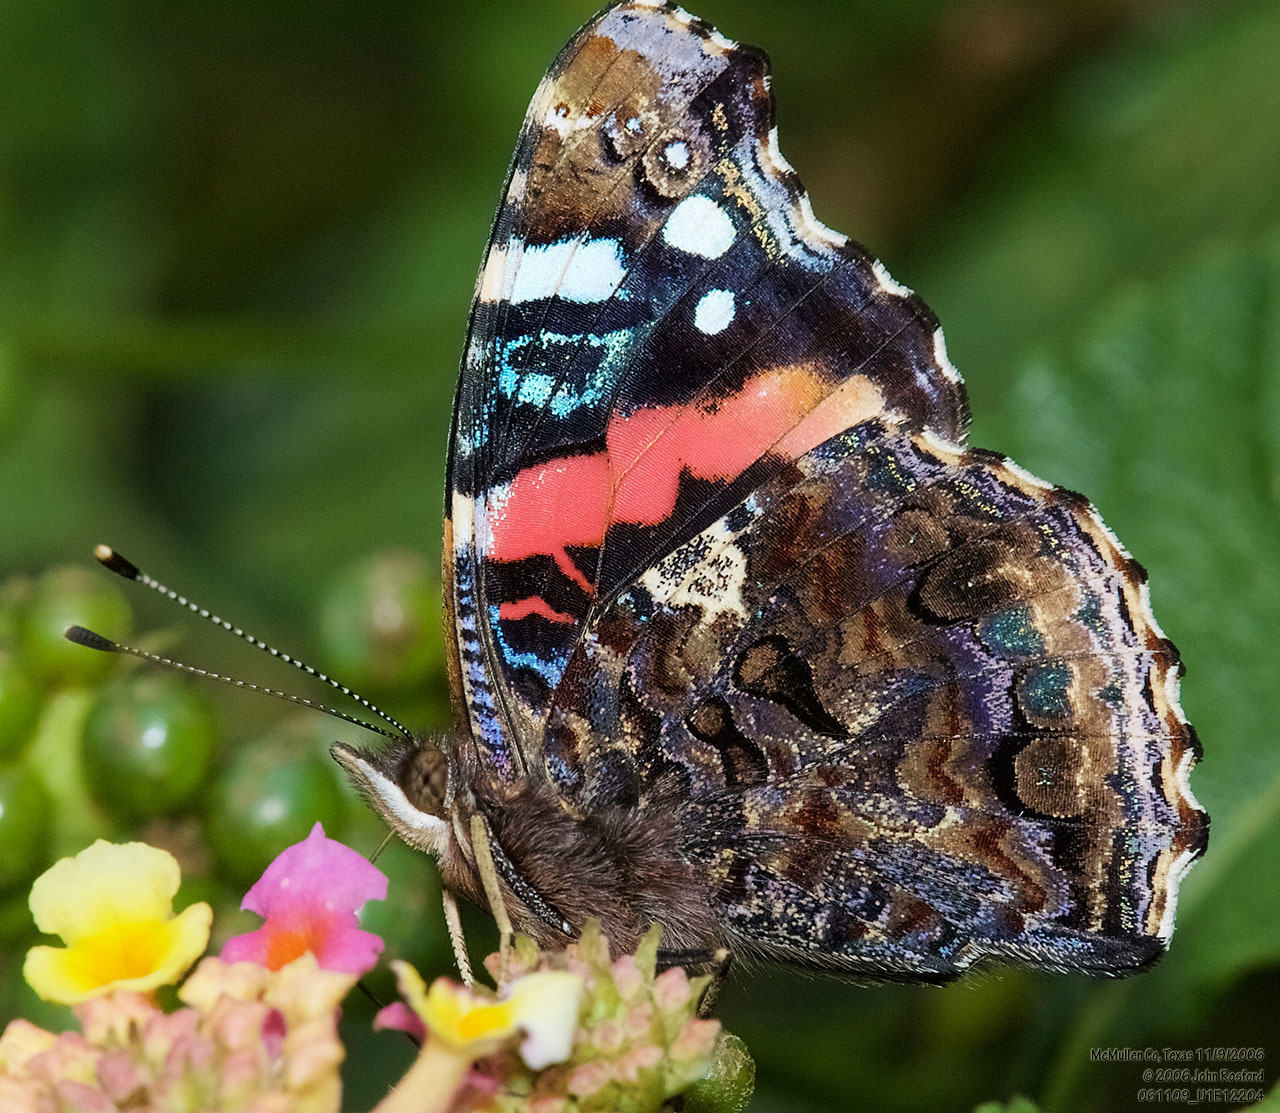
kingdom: Animalia
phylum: Arthropoda
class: Insecta
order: Lepidoptera
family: Nymphalidae
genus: Vanessa
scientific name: Vanessa atalanta
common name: Red admiral
